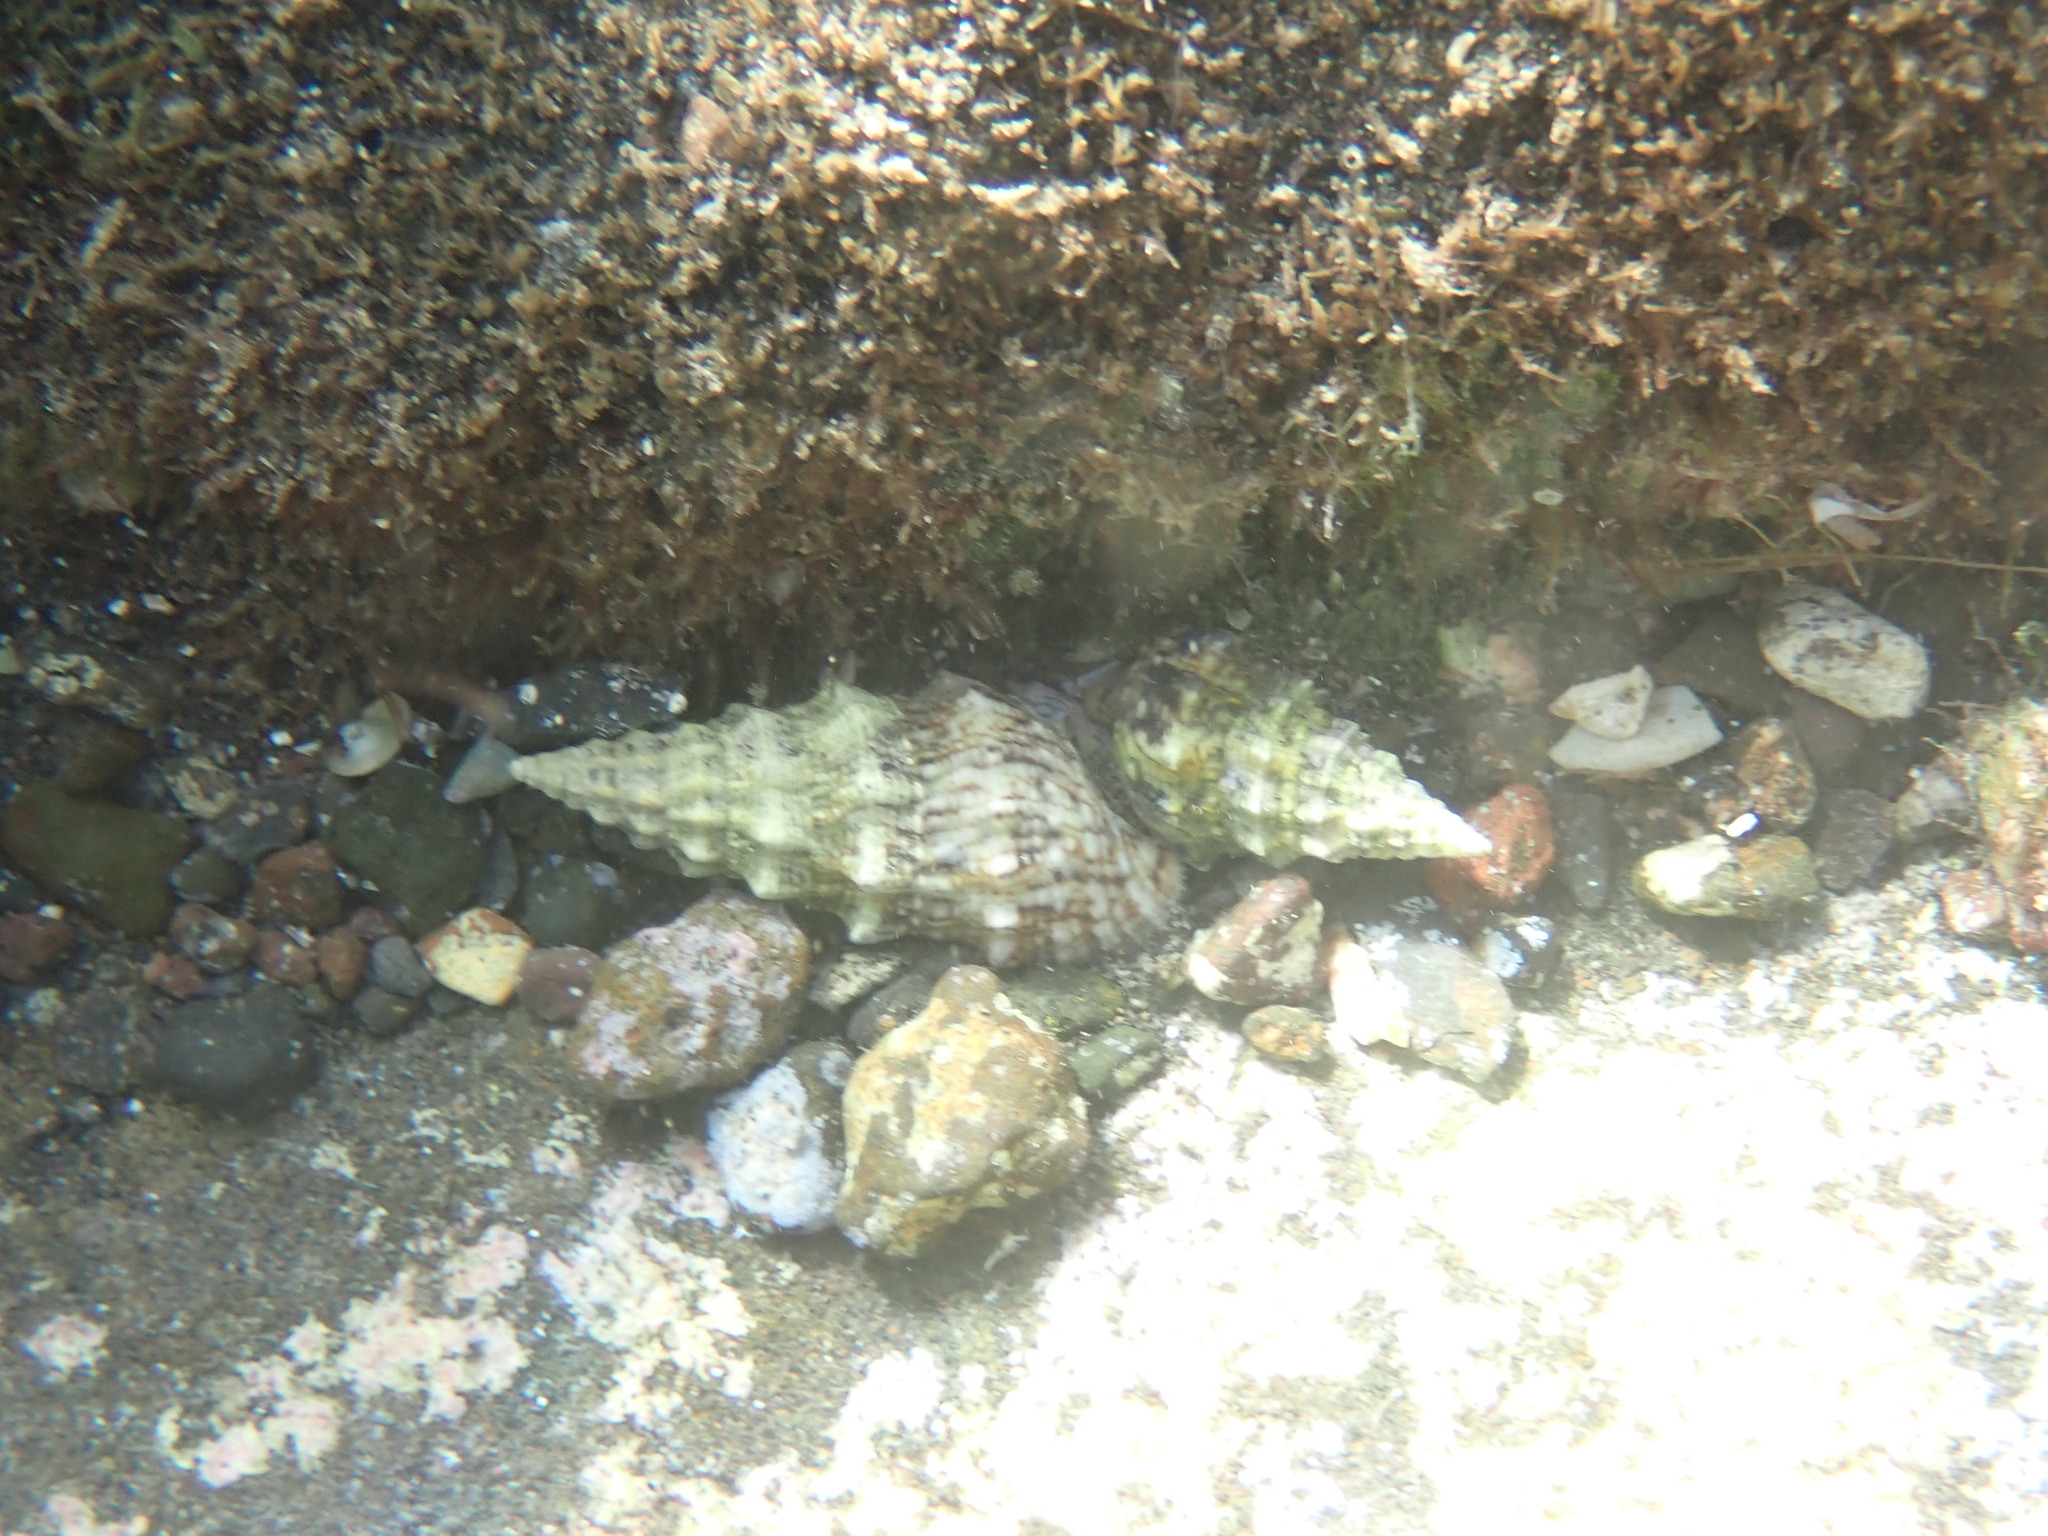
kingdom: Animalia
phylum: Mollusca
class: Gastropoda
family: Cerithiidae
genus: Cerithium
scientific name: Cerithium vulgatum
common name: European cerith
